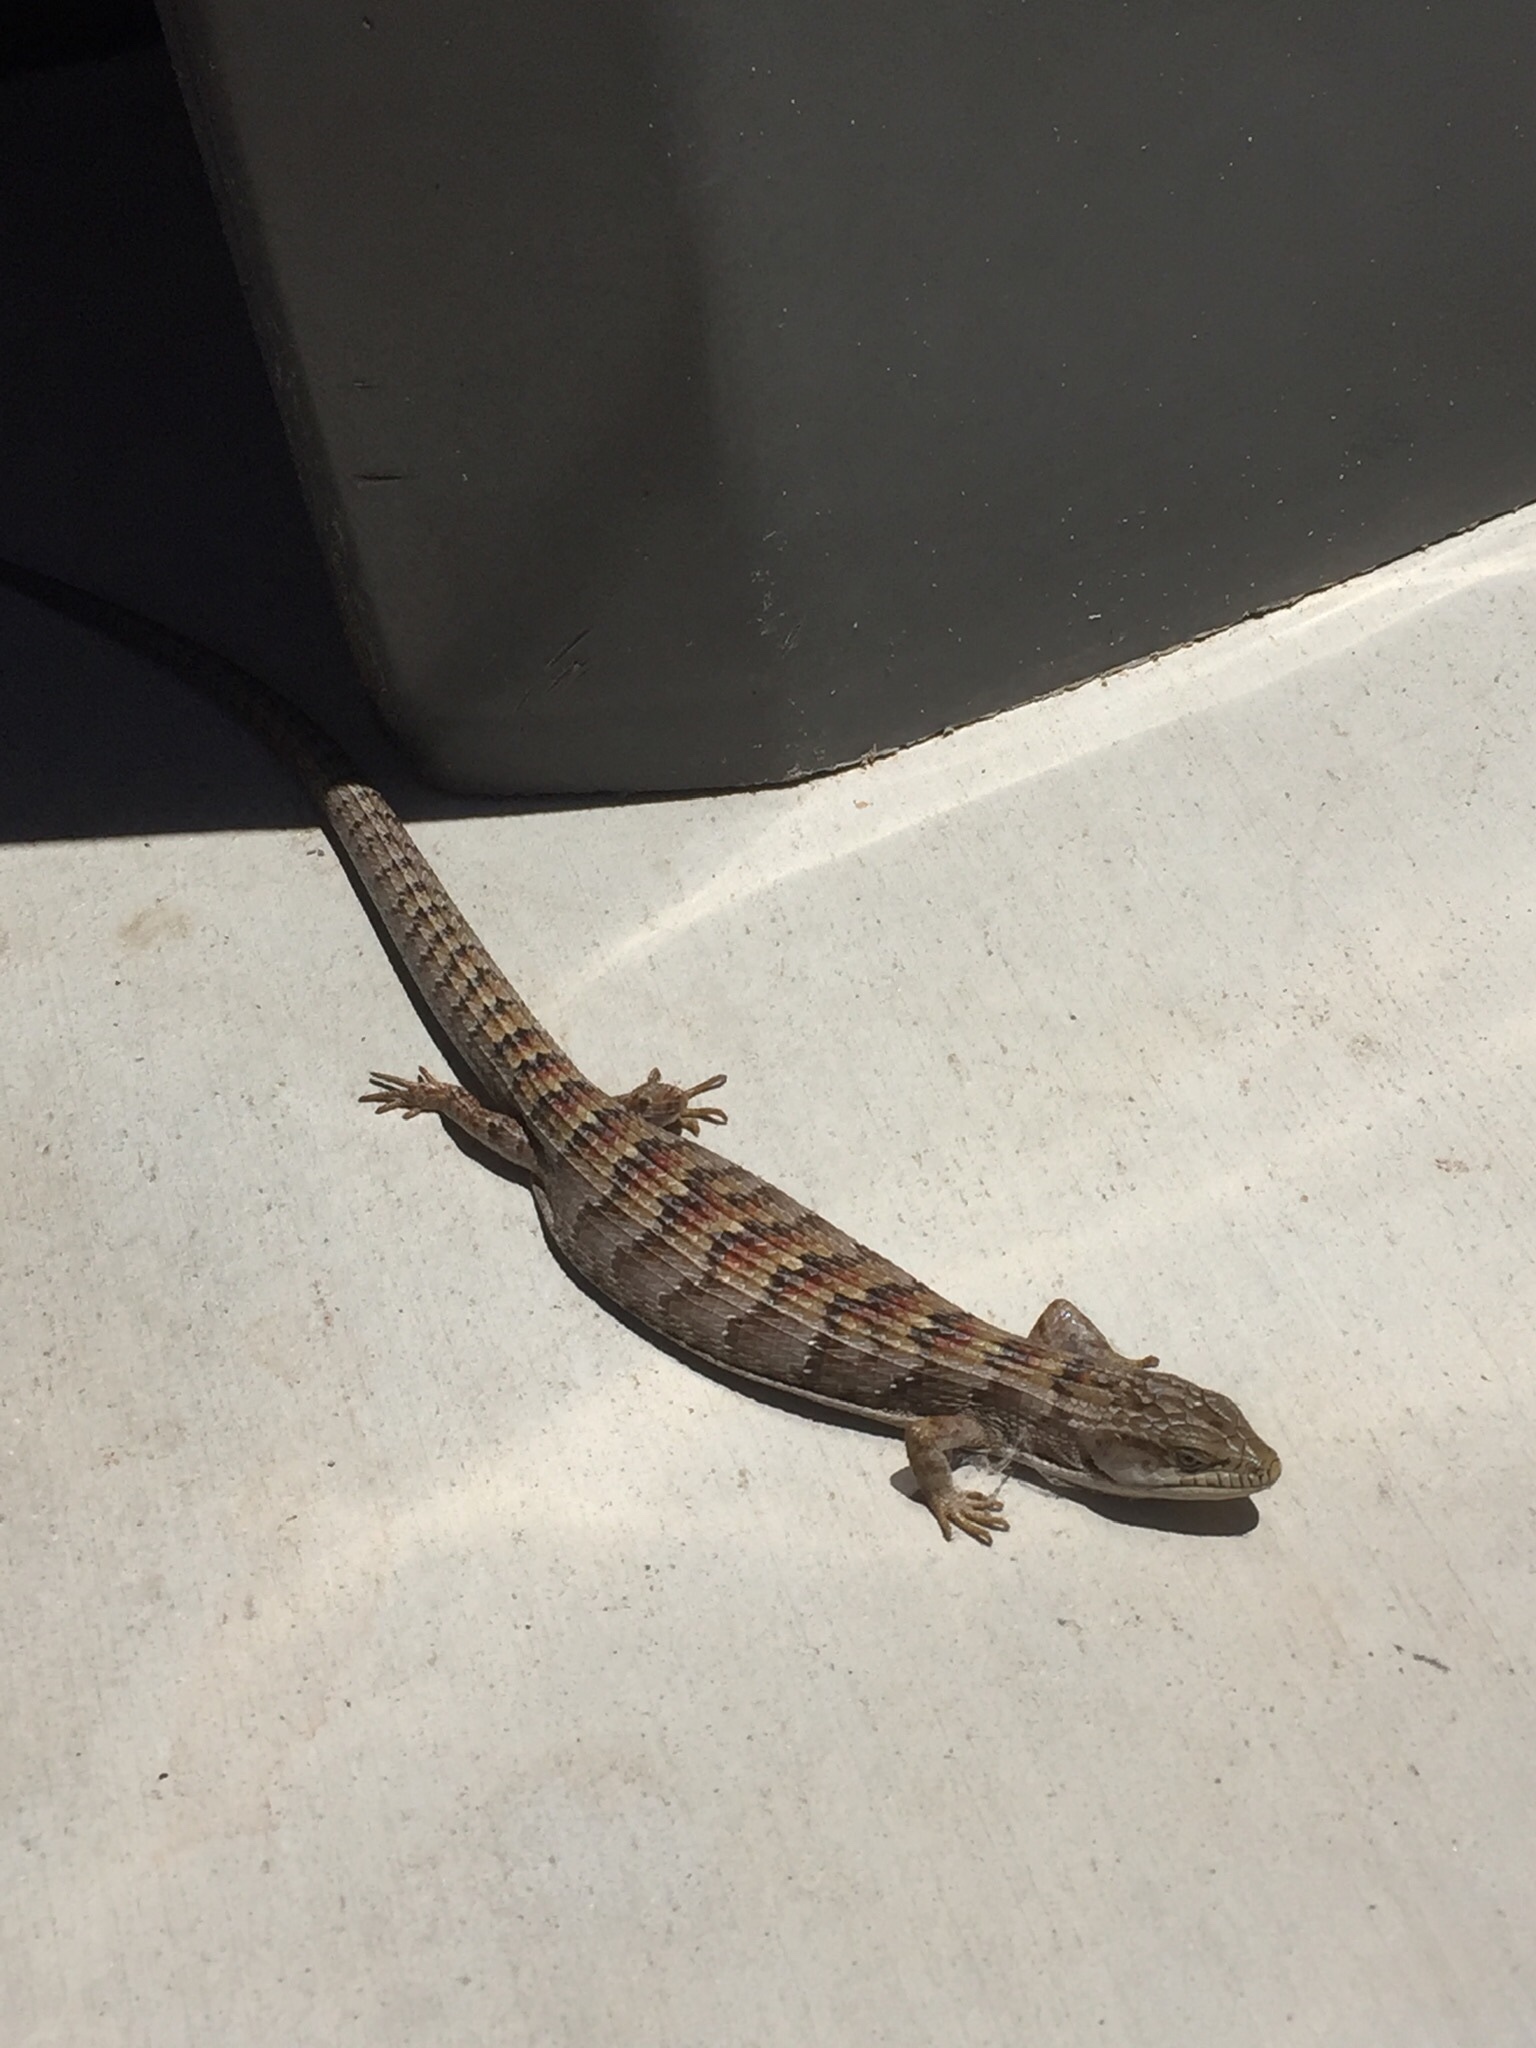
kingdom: Animalia
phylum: Chordata
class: Squamata
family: Anguidae
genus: Elgaria
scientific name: Elgaria multicarinata
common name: Southern alligator lizard
